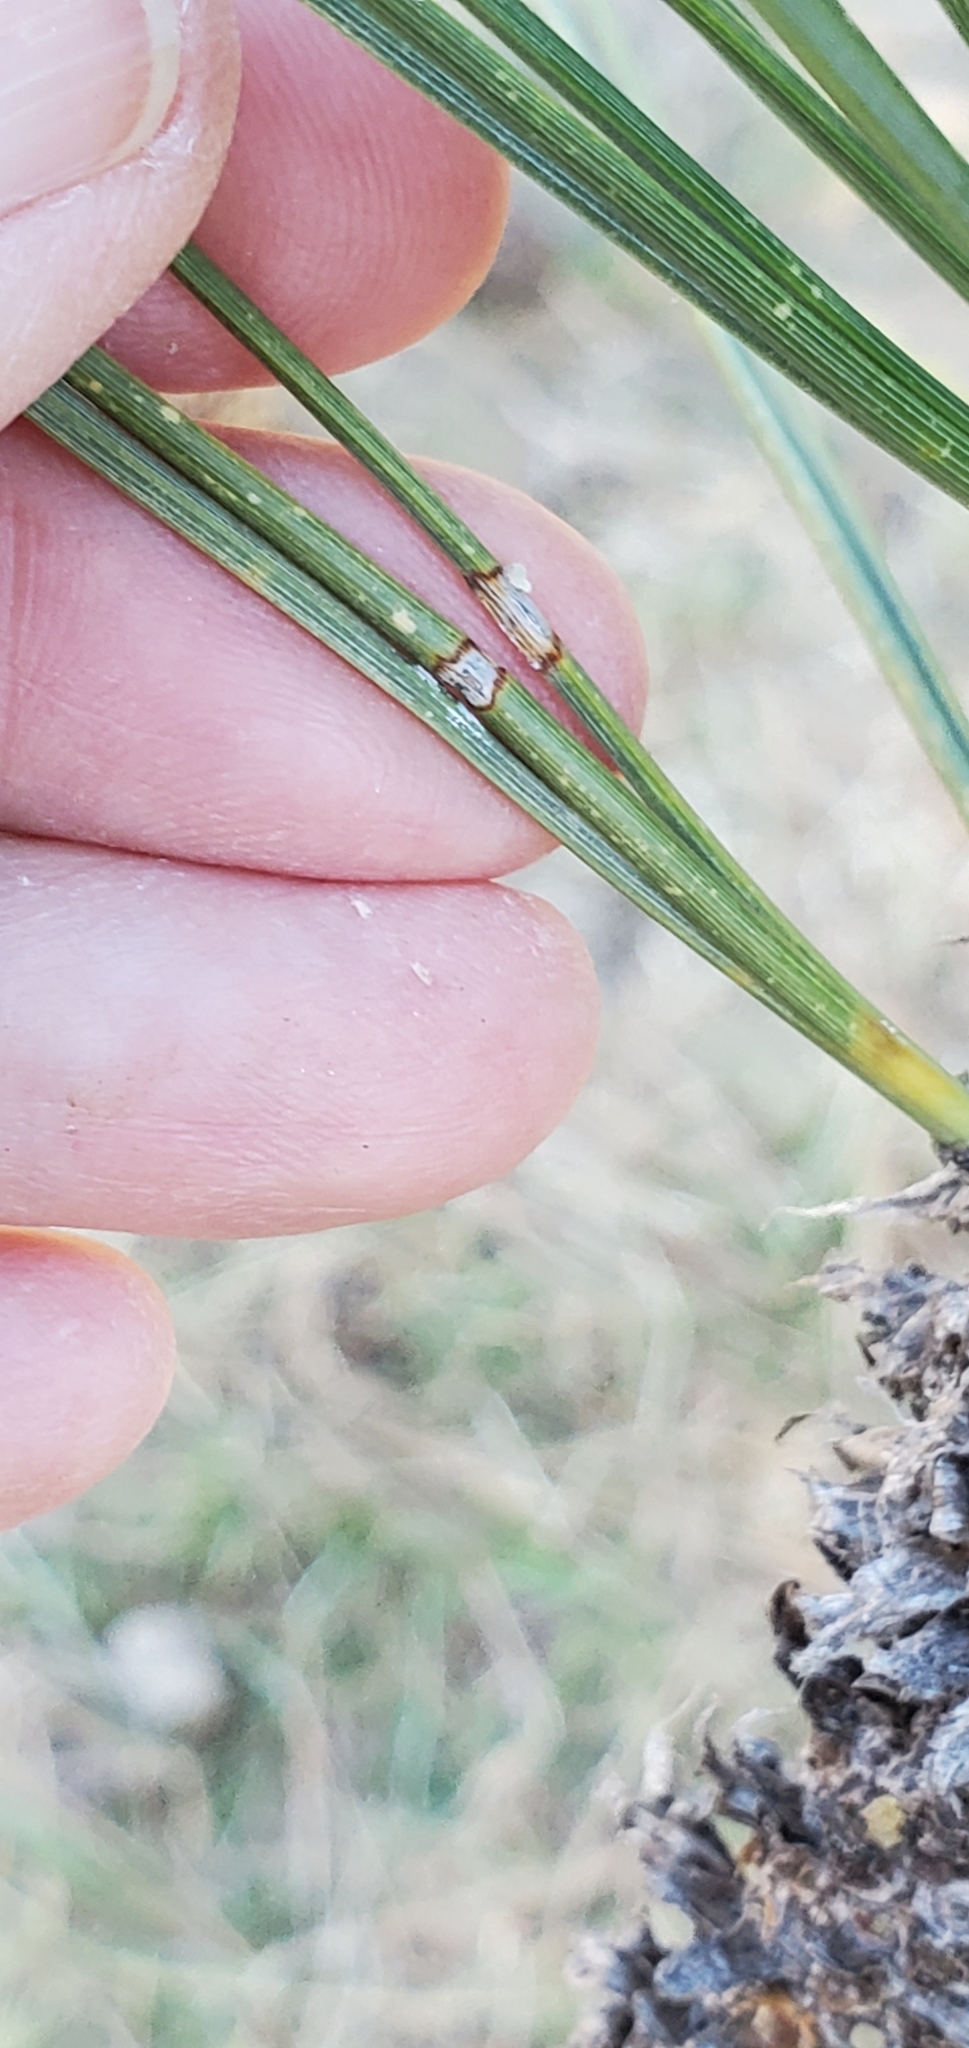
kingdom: Plantae
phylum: Tracheophyta
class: Pinopsida
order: Pinales
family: Pinaceae
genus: Pinus
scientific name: Pinus jeffreyi
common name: Jeffrey pine
